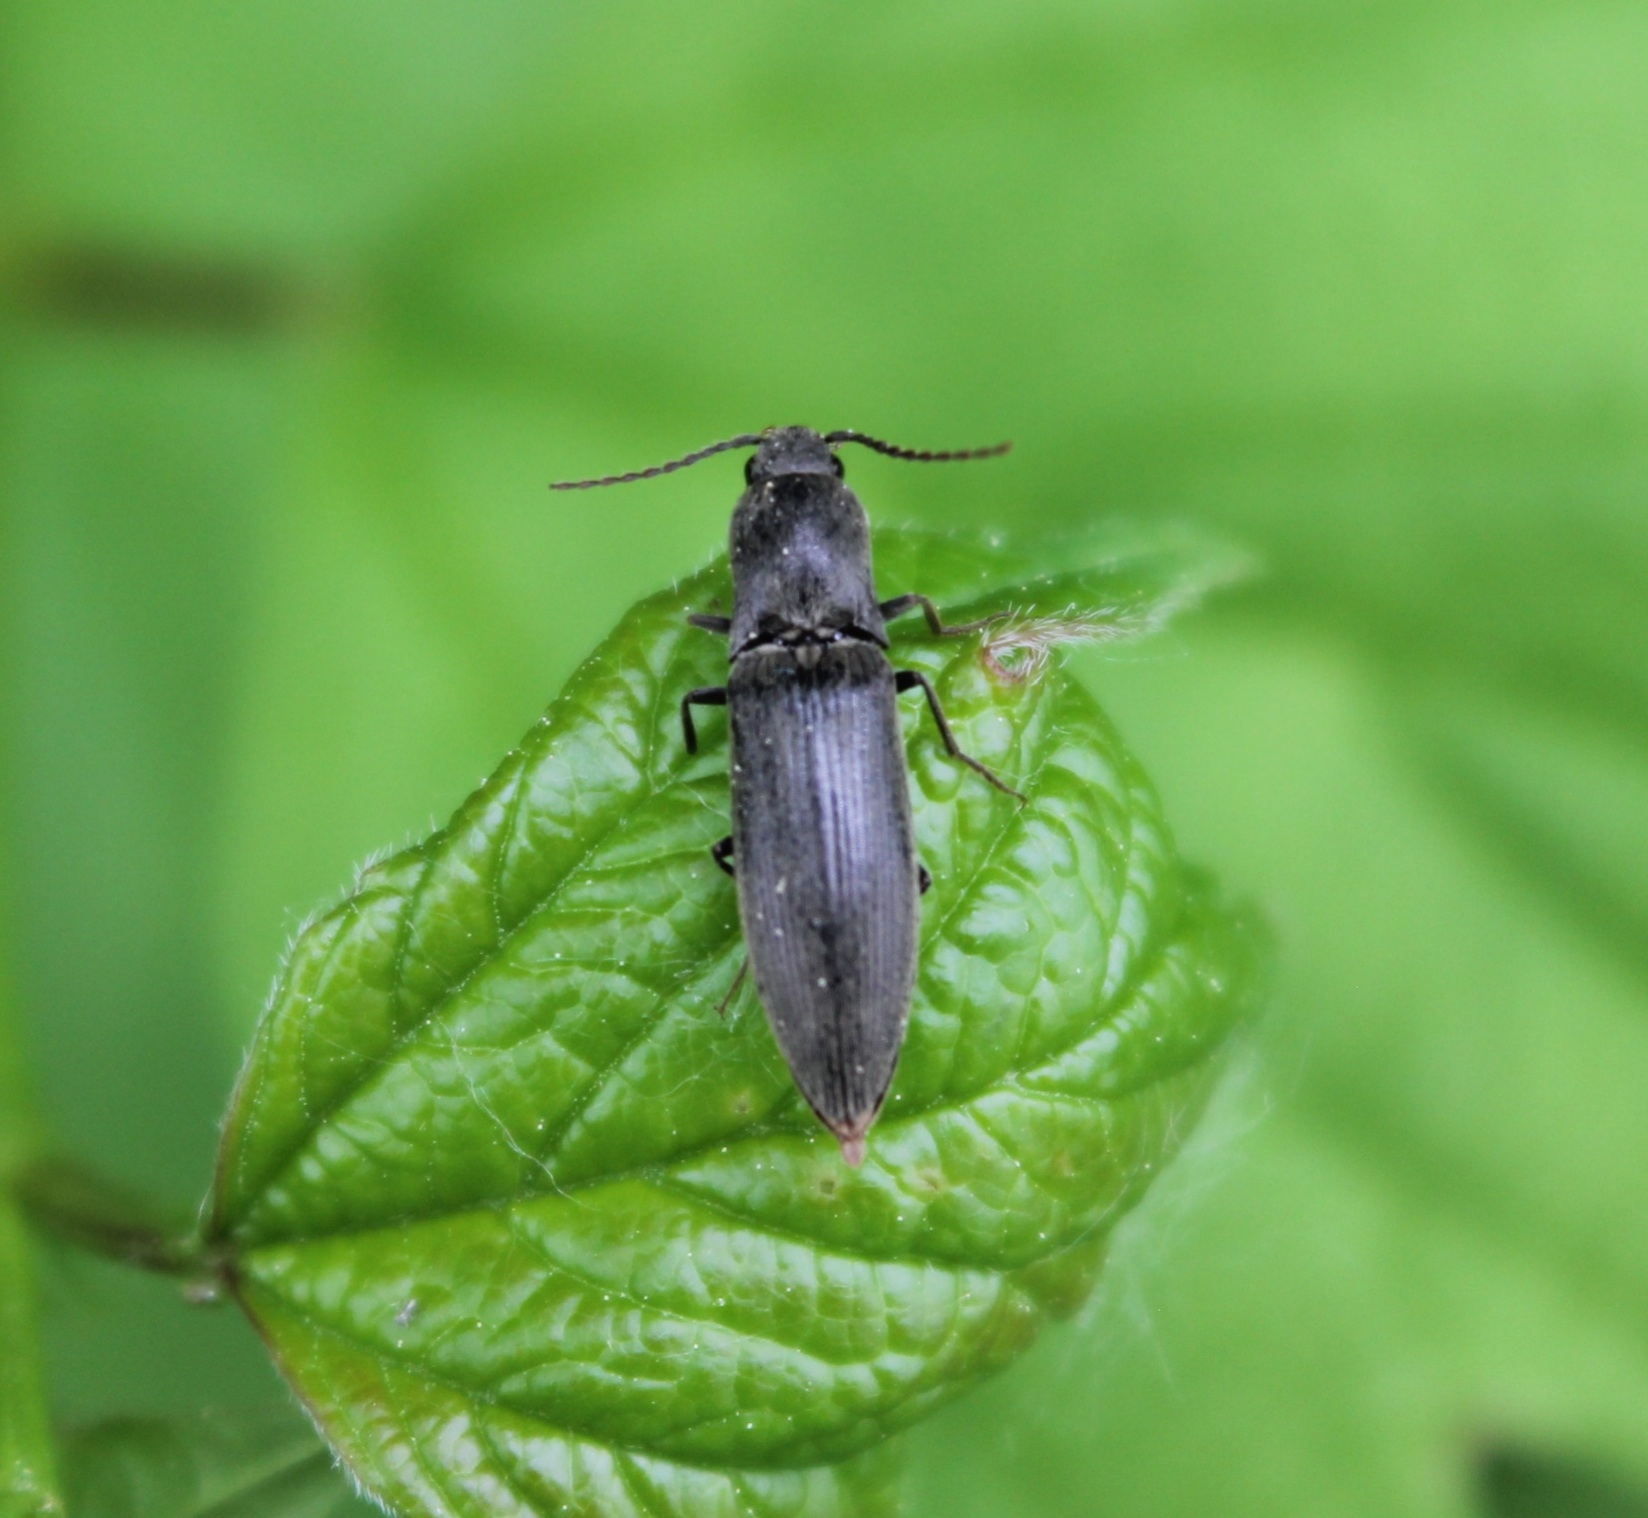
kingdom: Animalia
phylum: Arthropoda
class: Insecta
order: Coleoptera
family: Elateridae
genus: Agriotes
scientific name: Agriotes pilosellus
